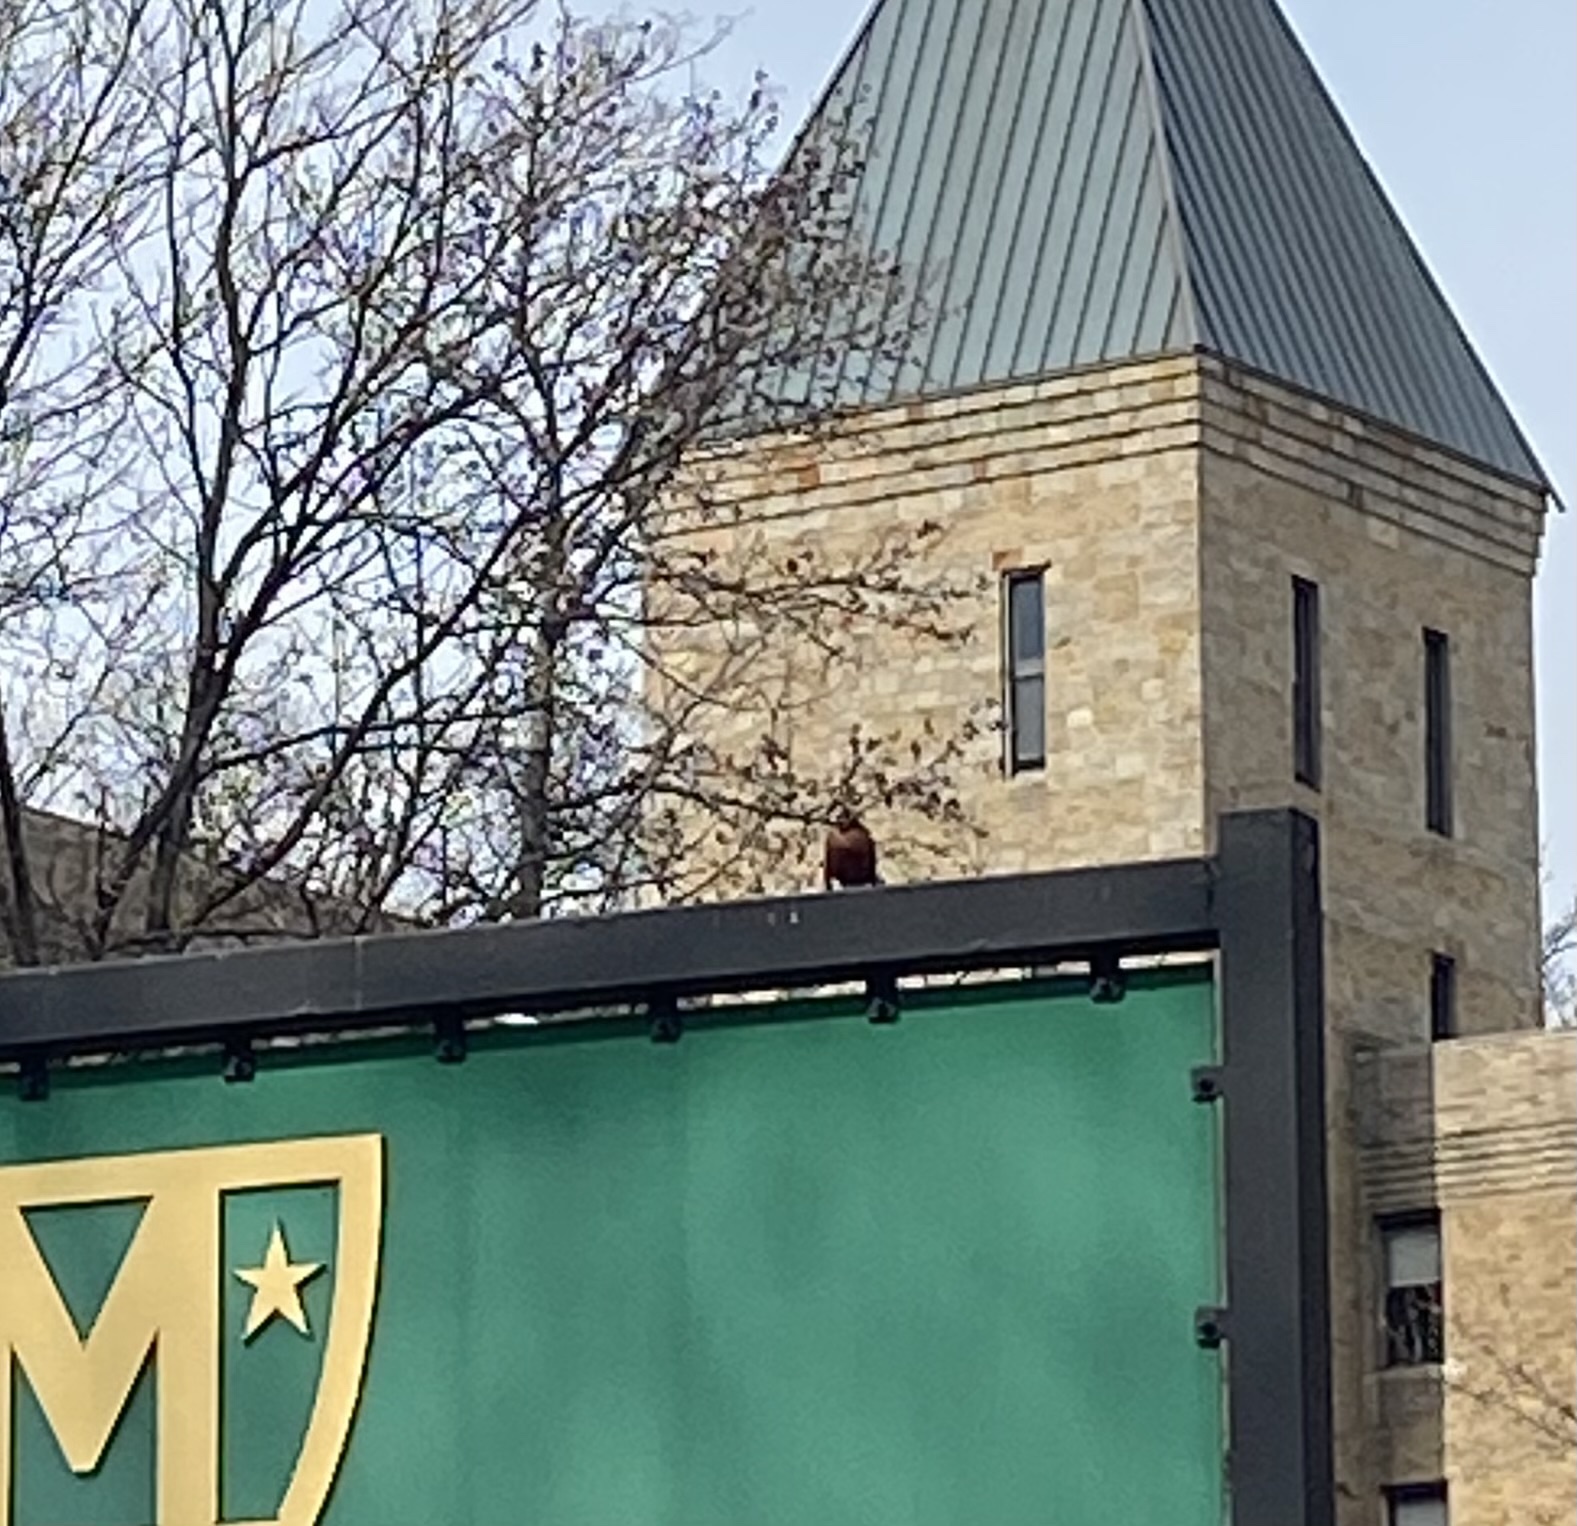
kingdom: Animalia
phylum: Chordata
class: Aves
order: Passeriformes
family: Turdidae
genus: Turdus
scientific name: Turdus migratorius
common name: American robin
